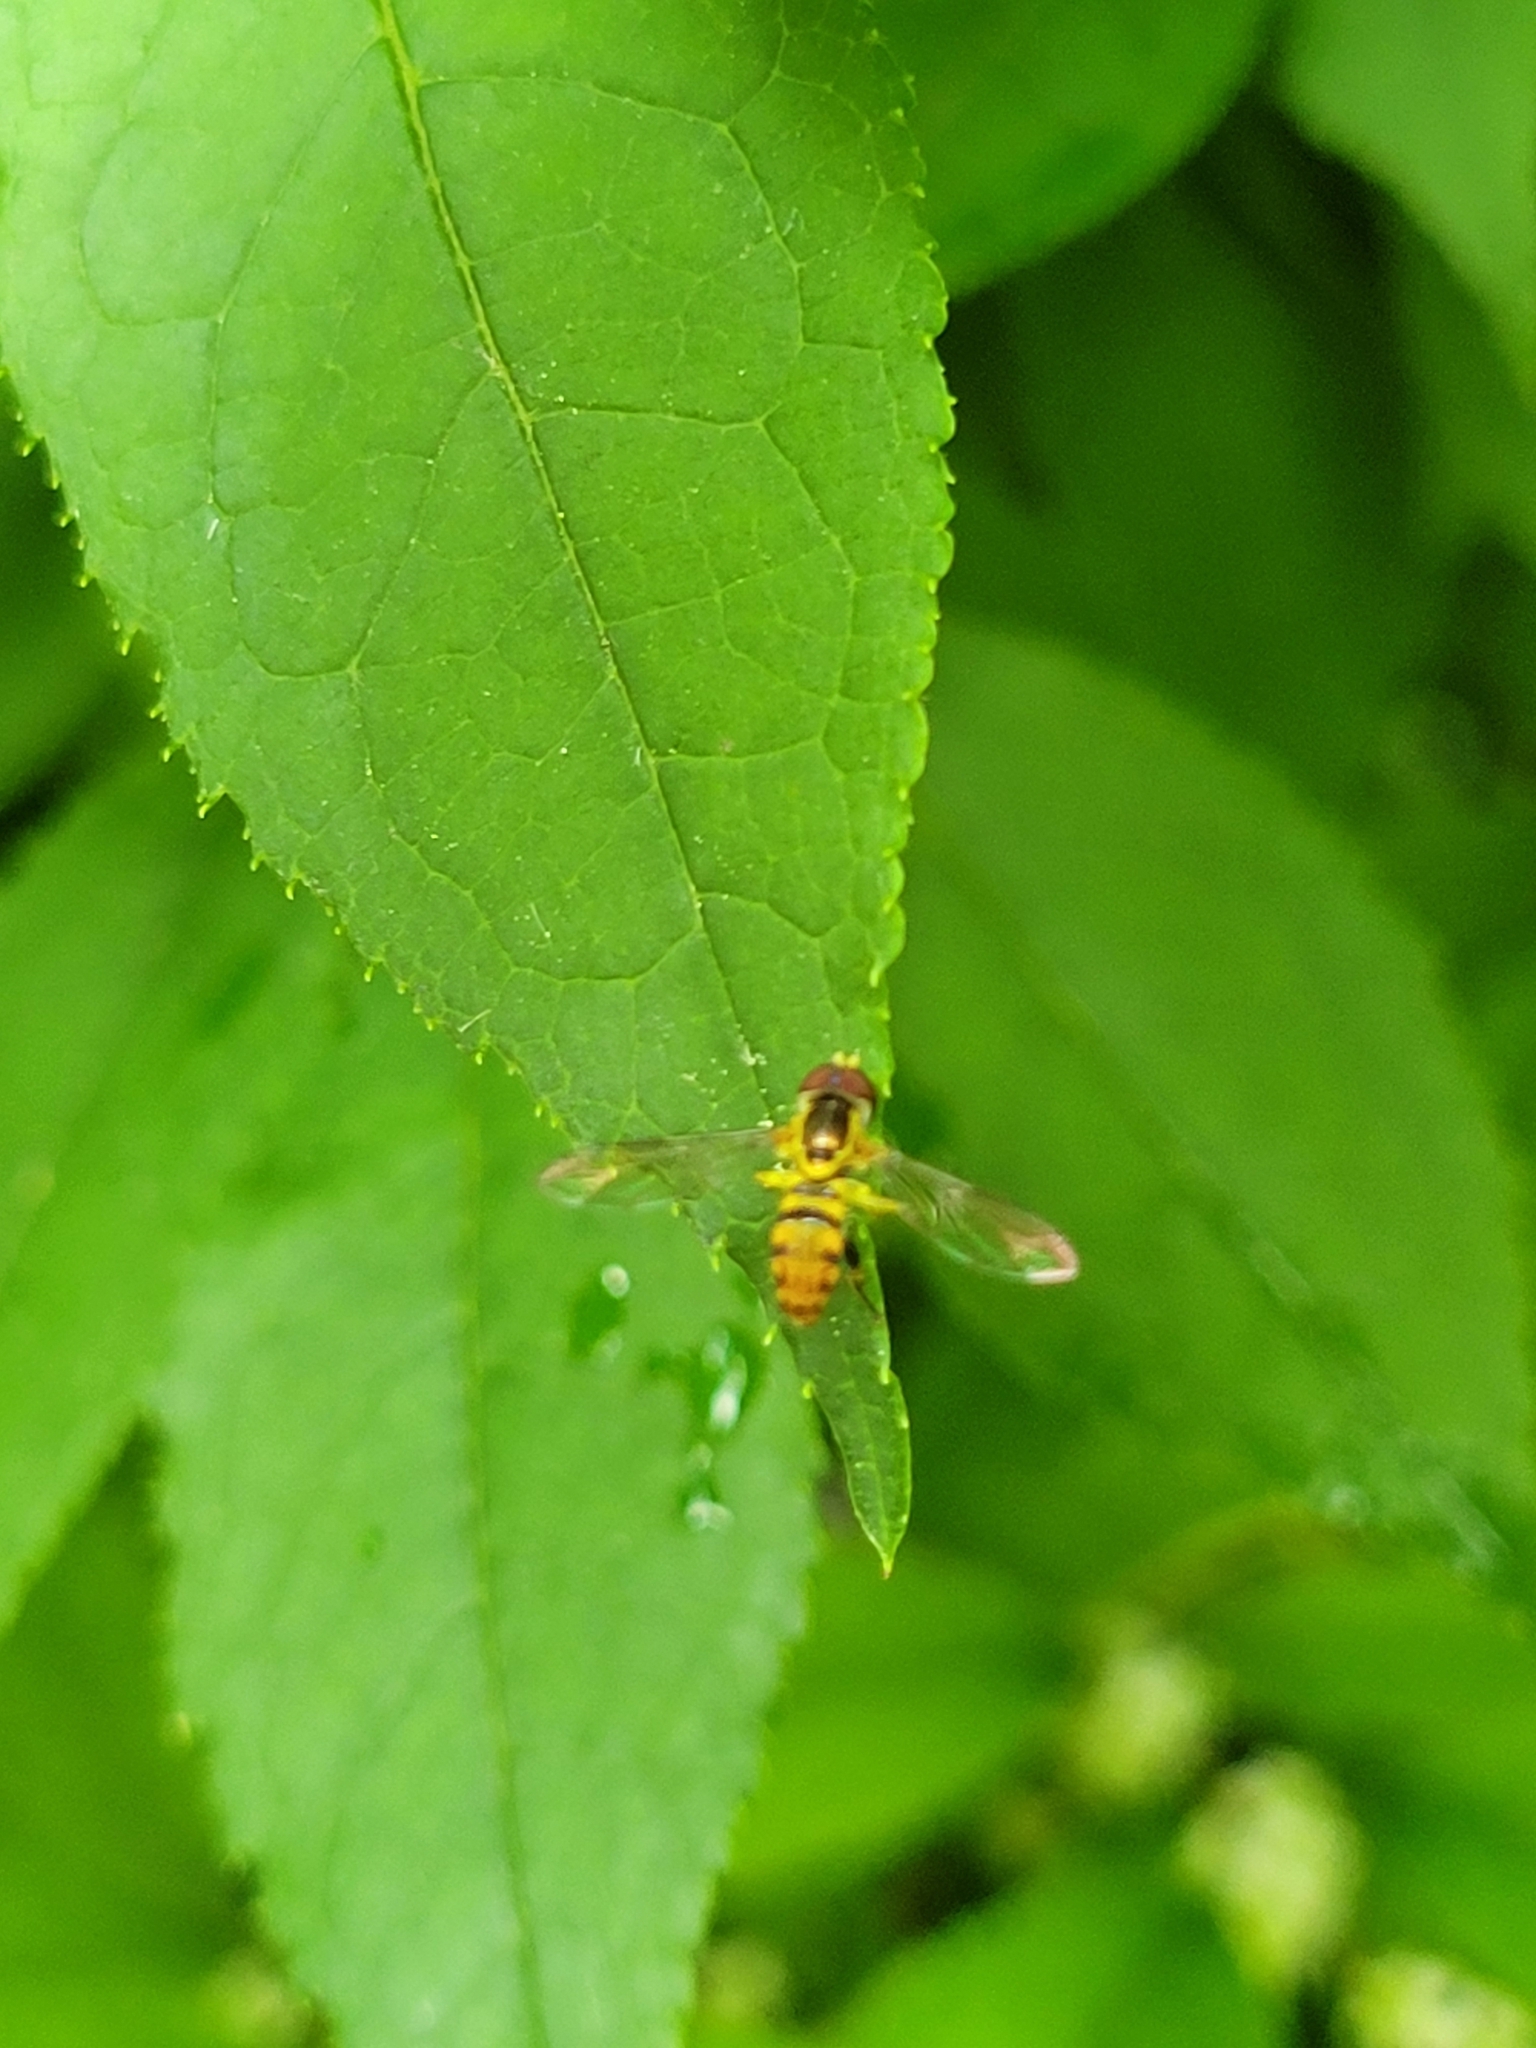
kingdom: Animalia
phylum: Arthropoda
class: Insecta
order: Diptera
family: Syrphidae
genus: Toxomerus
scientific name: Toxomerus geminatus
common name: Eastern calligrapher
